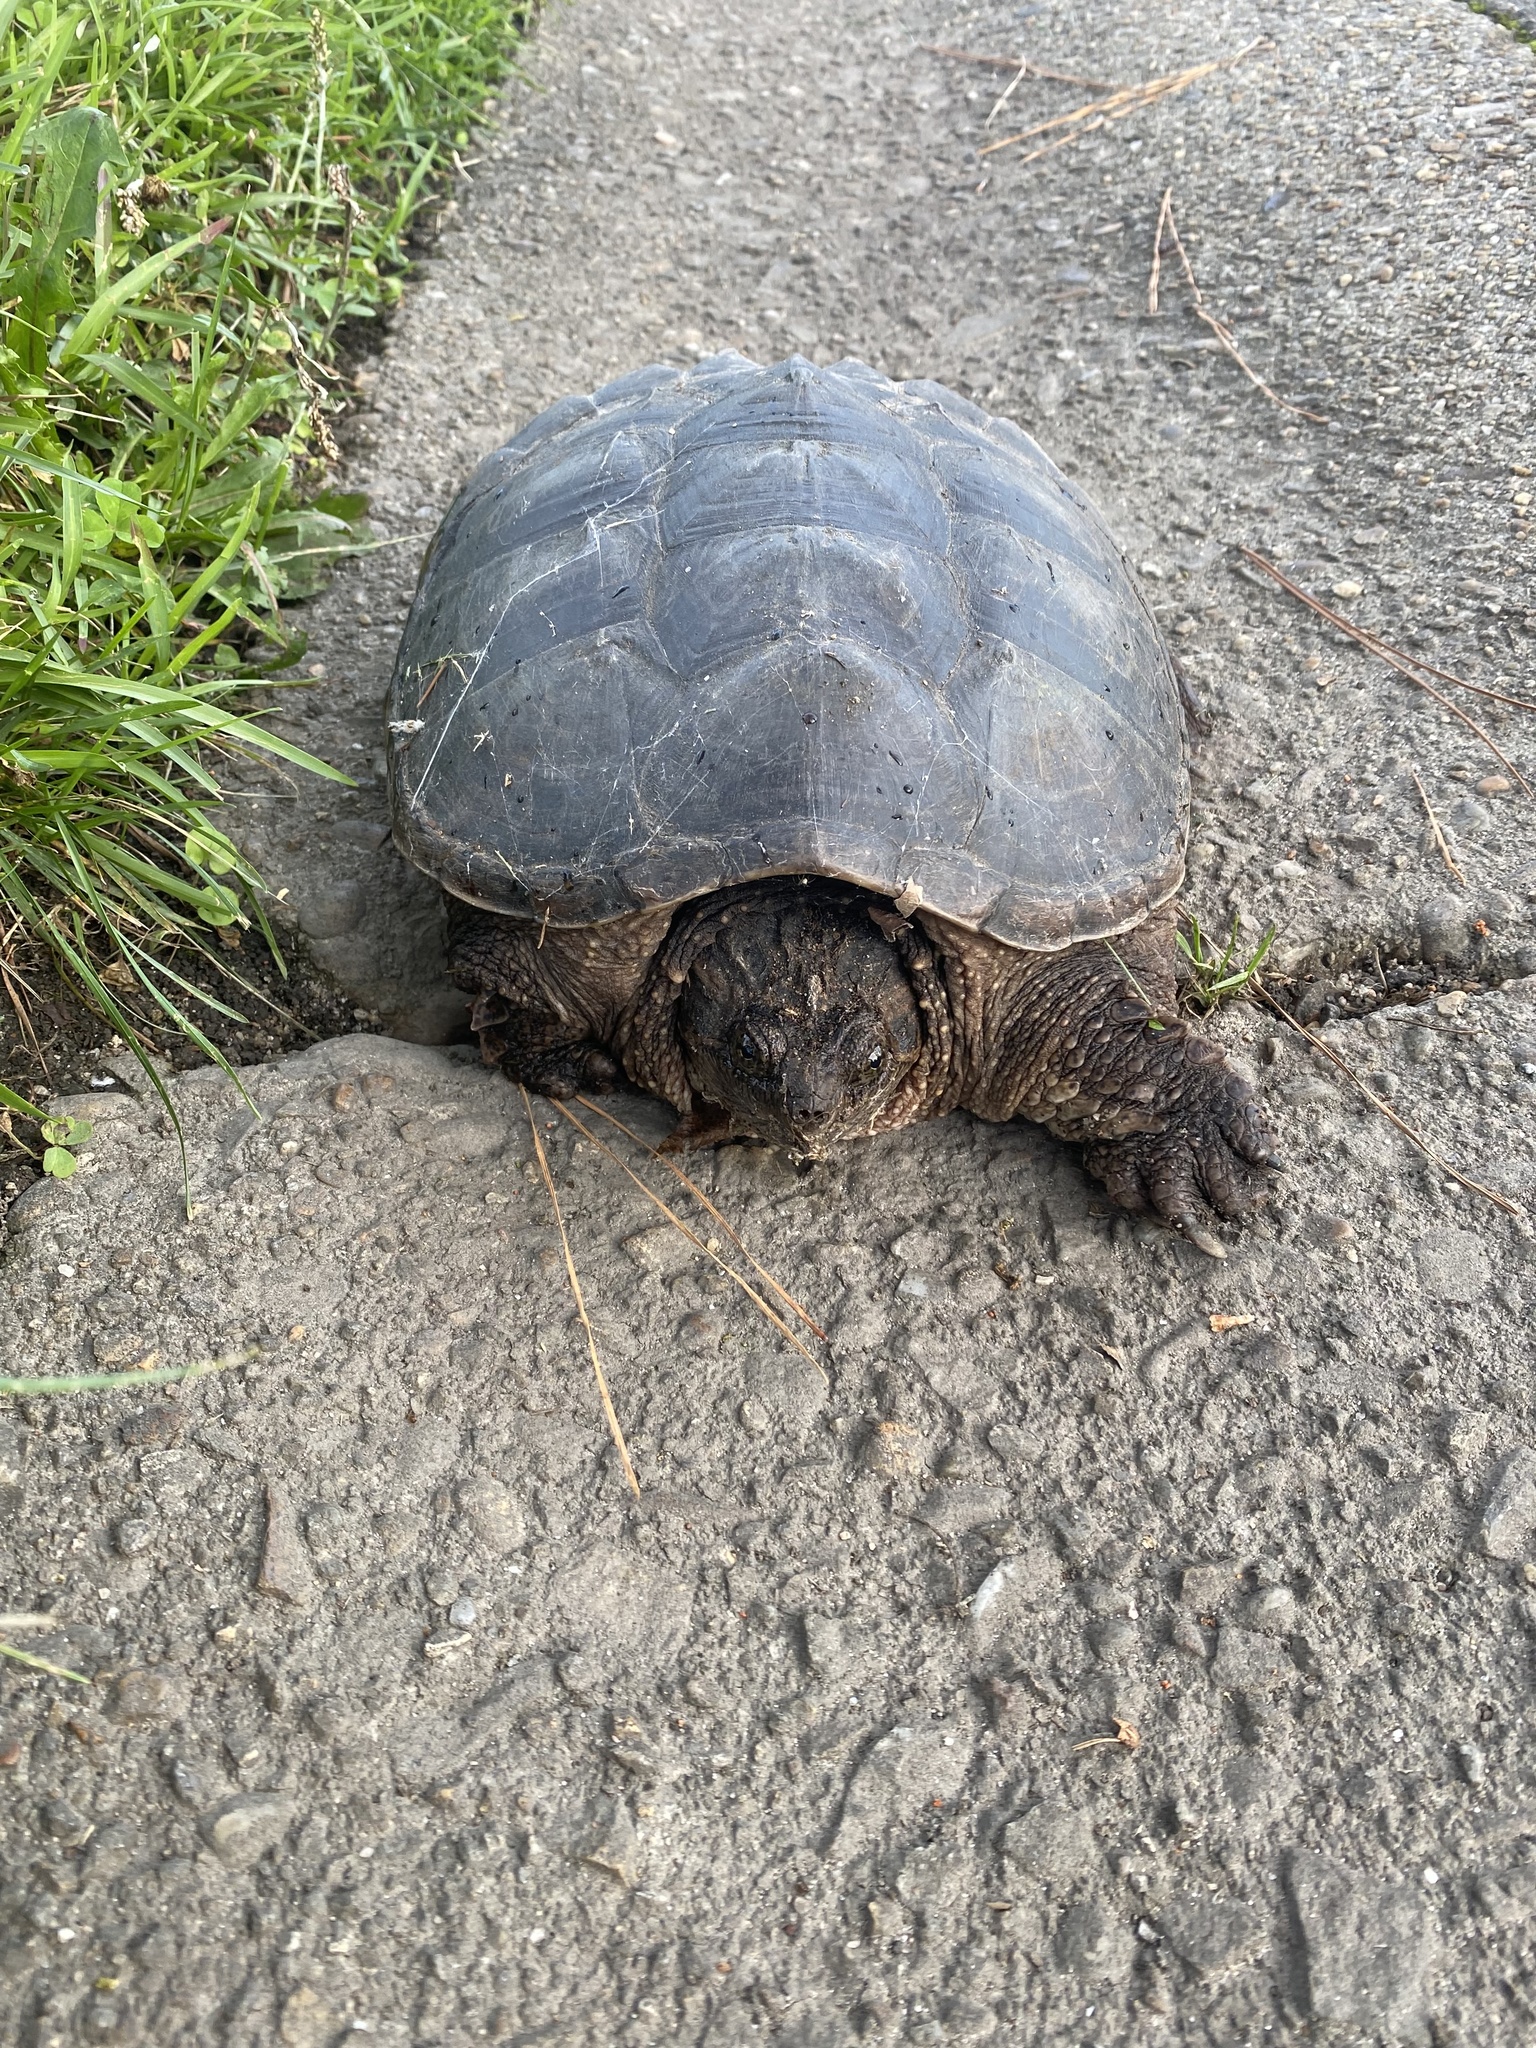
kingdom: Animalia
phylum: Chordata
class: Testudines
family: Chelydridae
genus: Chelydra
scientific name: Chelydra serpentina
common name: Common snapping turtle
